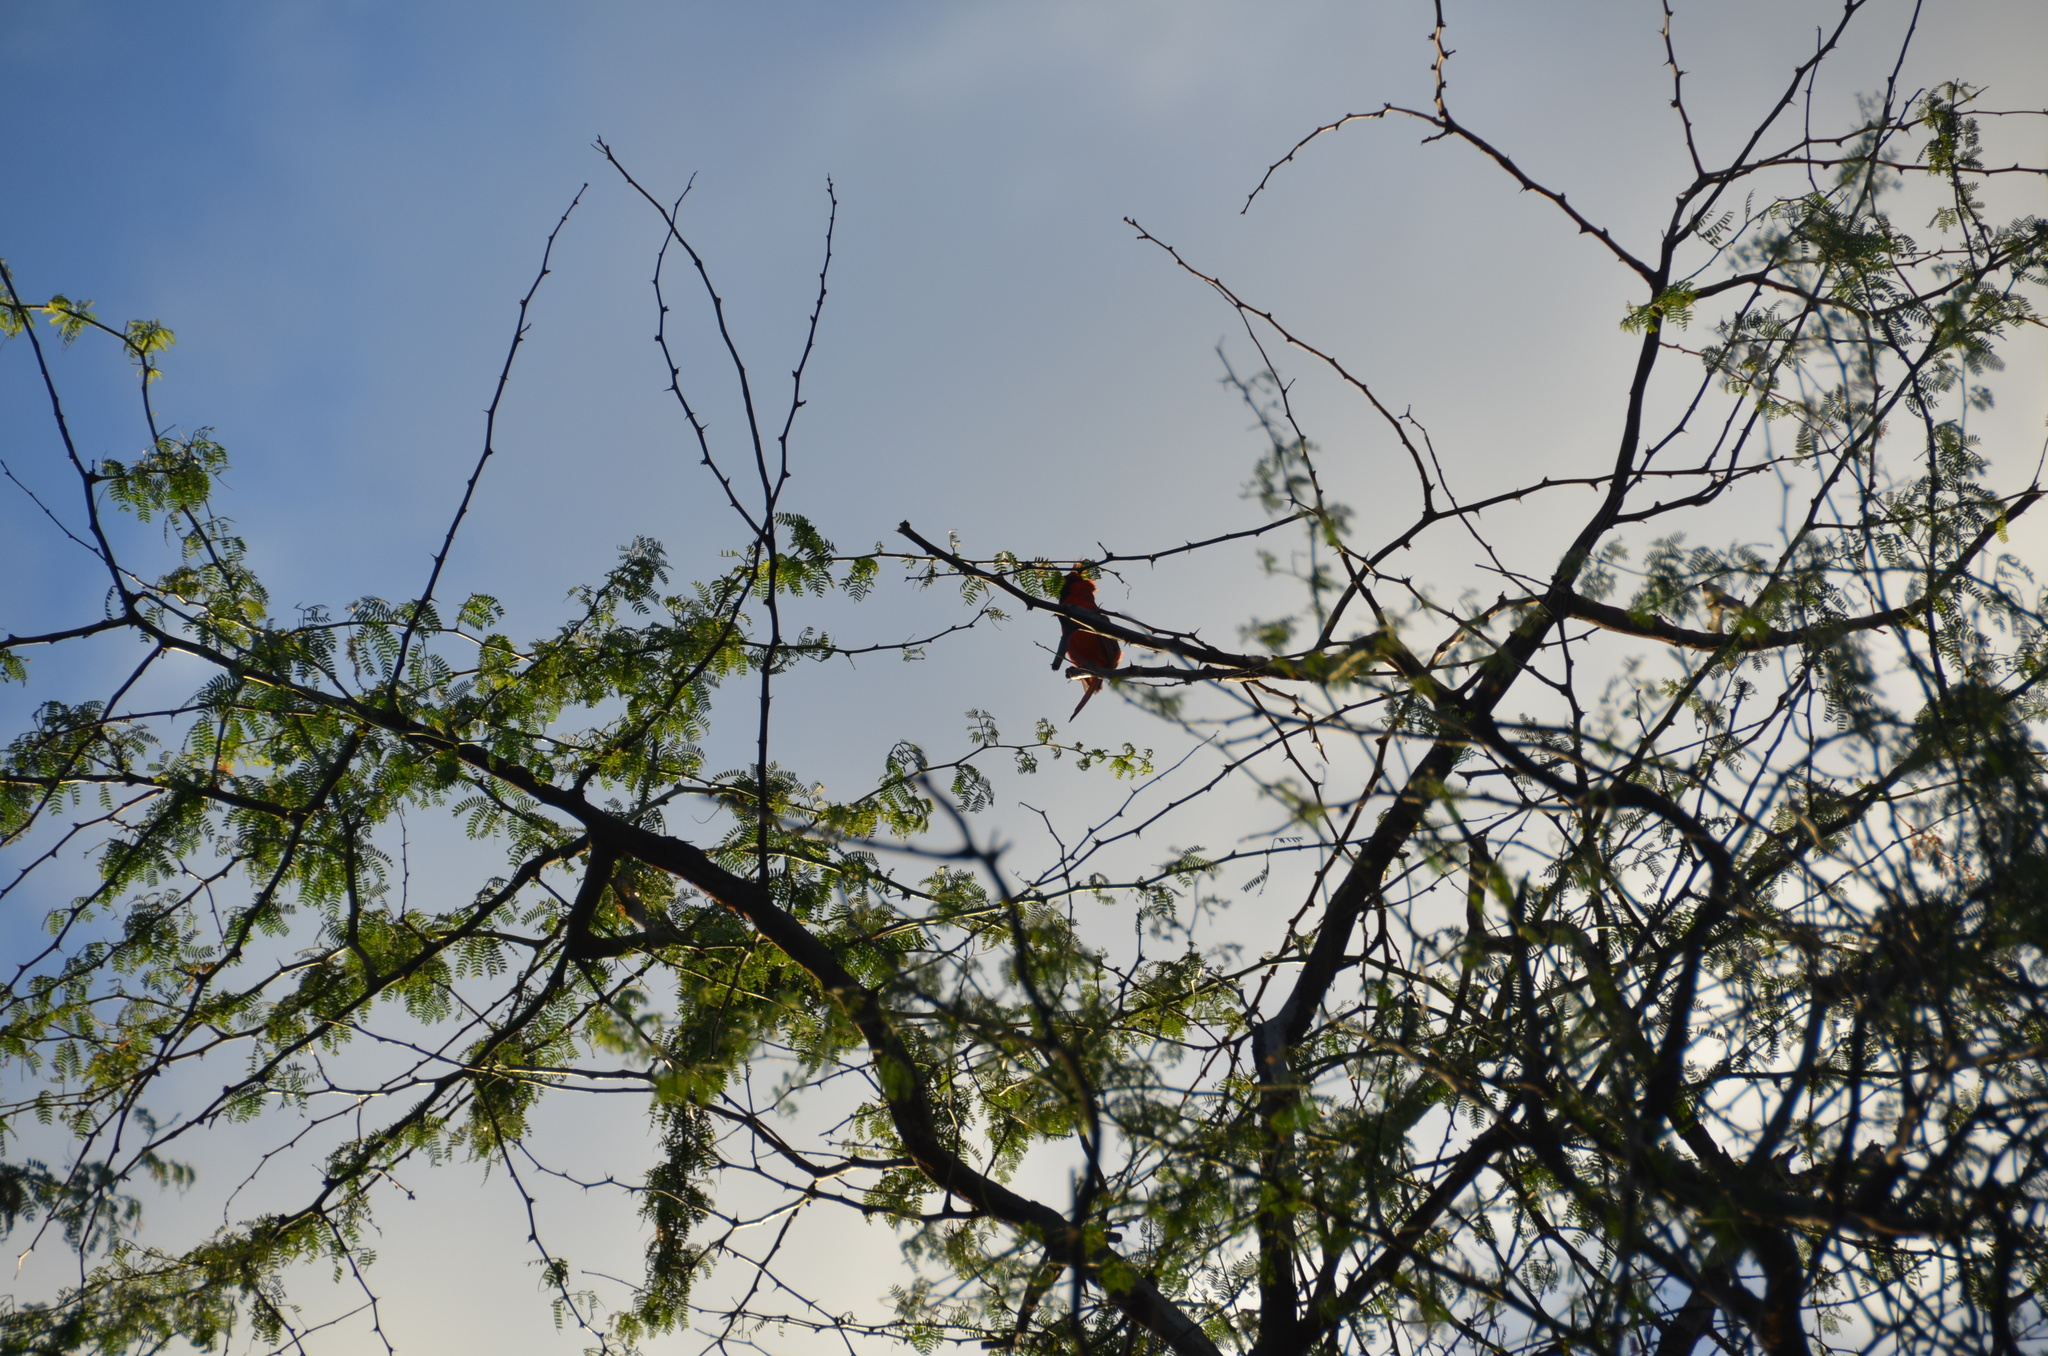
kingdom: Animalia
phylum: Chordata
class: Aves
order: Passeriformes
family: Cardinalidae
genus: Cardinalis
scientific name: Cardinalis cardinalis
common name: Northern cardinal
